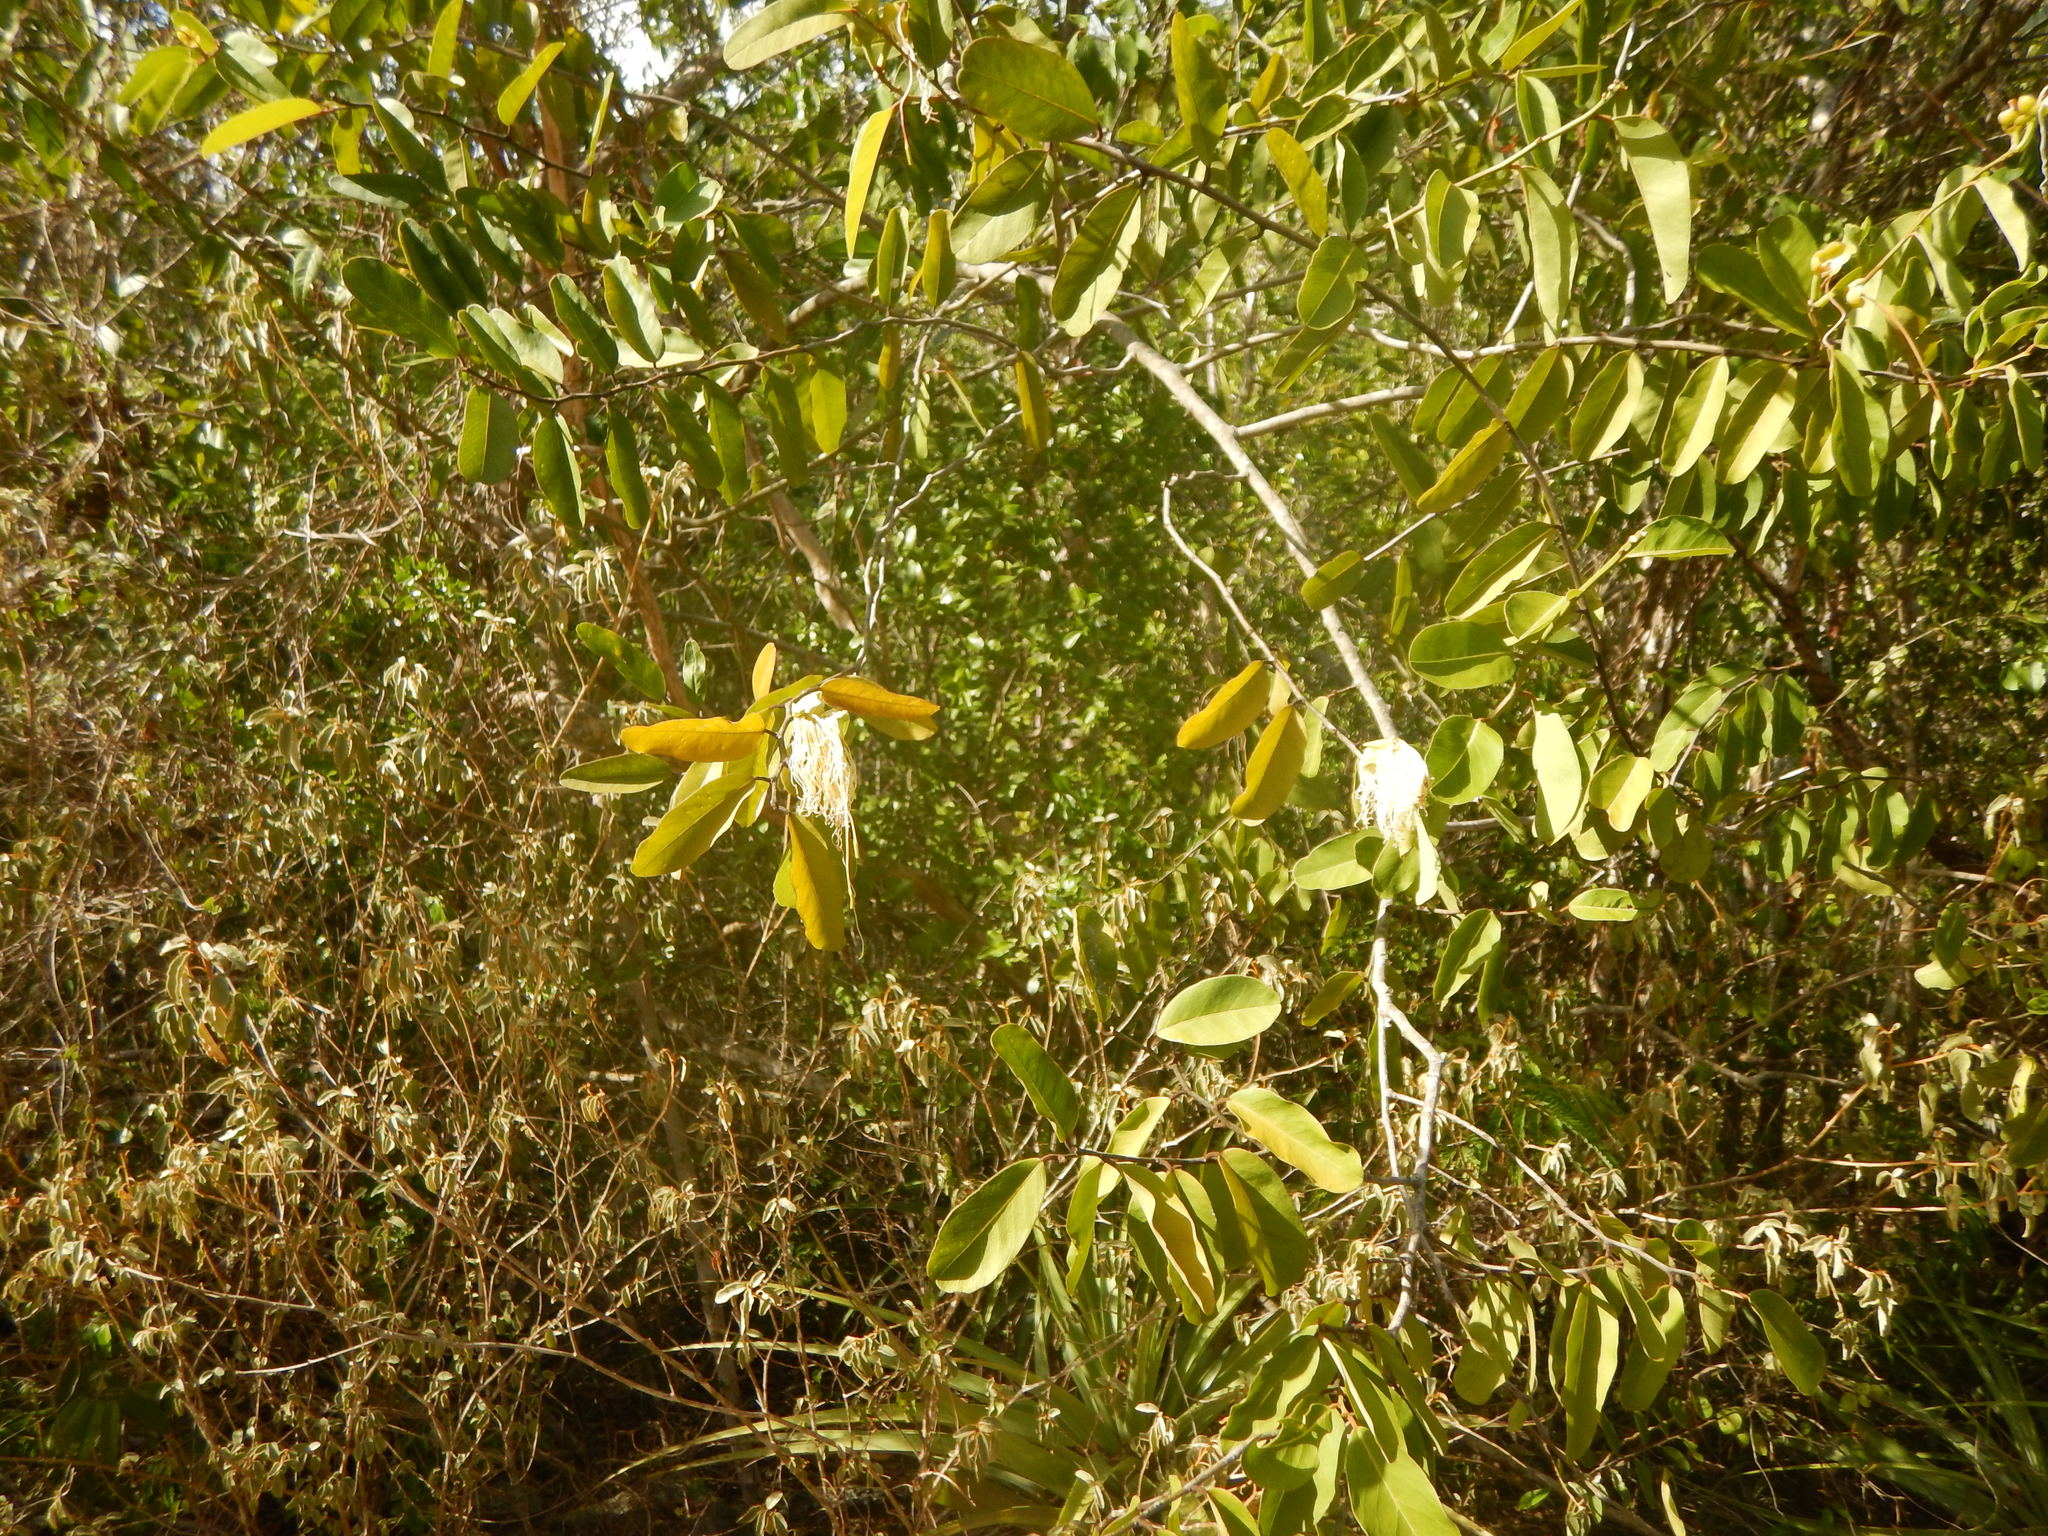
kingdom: Plantae
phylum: Tracheophyta
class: Magnoliopsida
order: Brassicales
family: Capparaceae
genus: Cynophalla
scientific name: Cynophalla flexuosa
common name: Capertree
